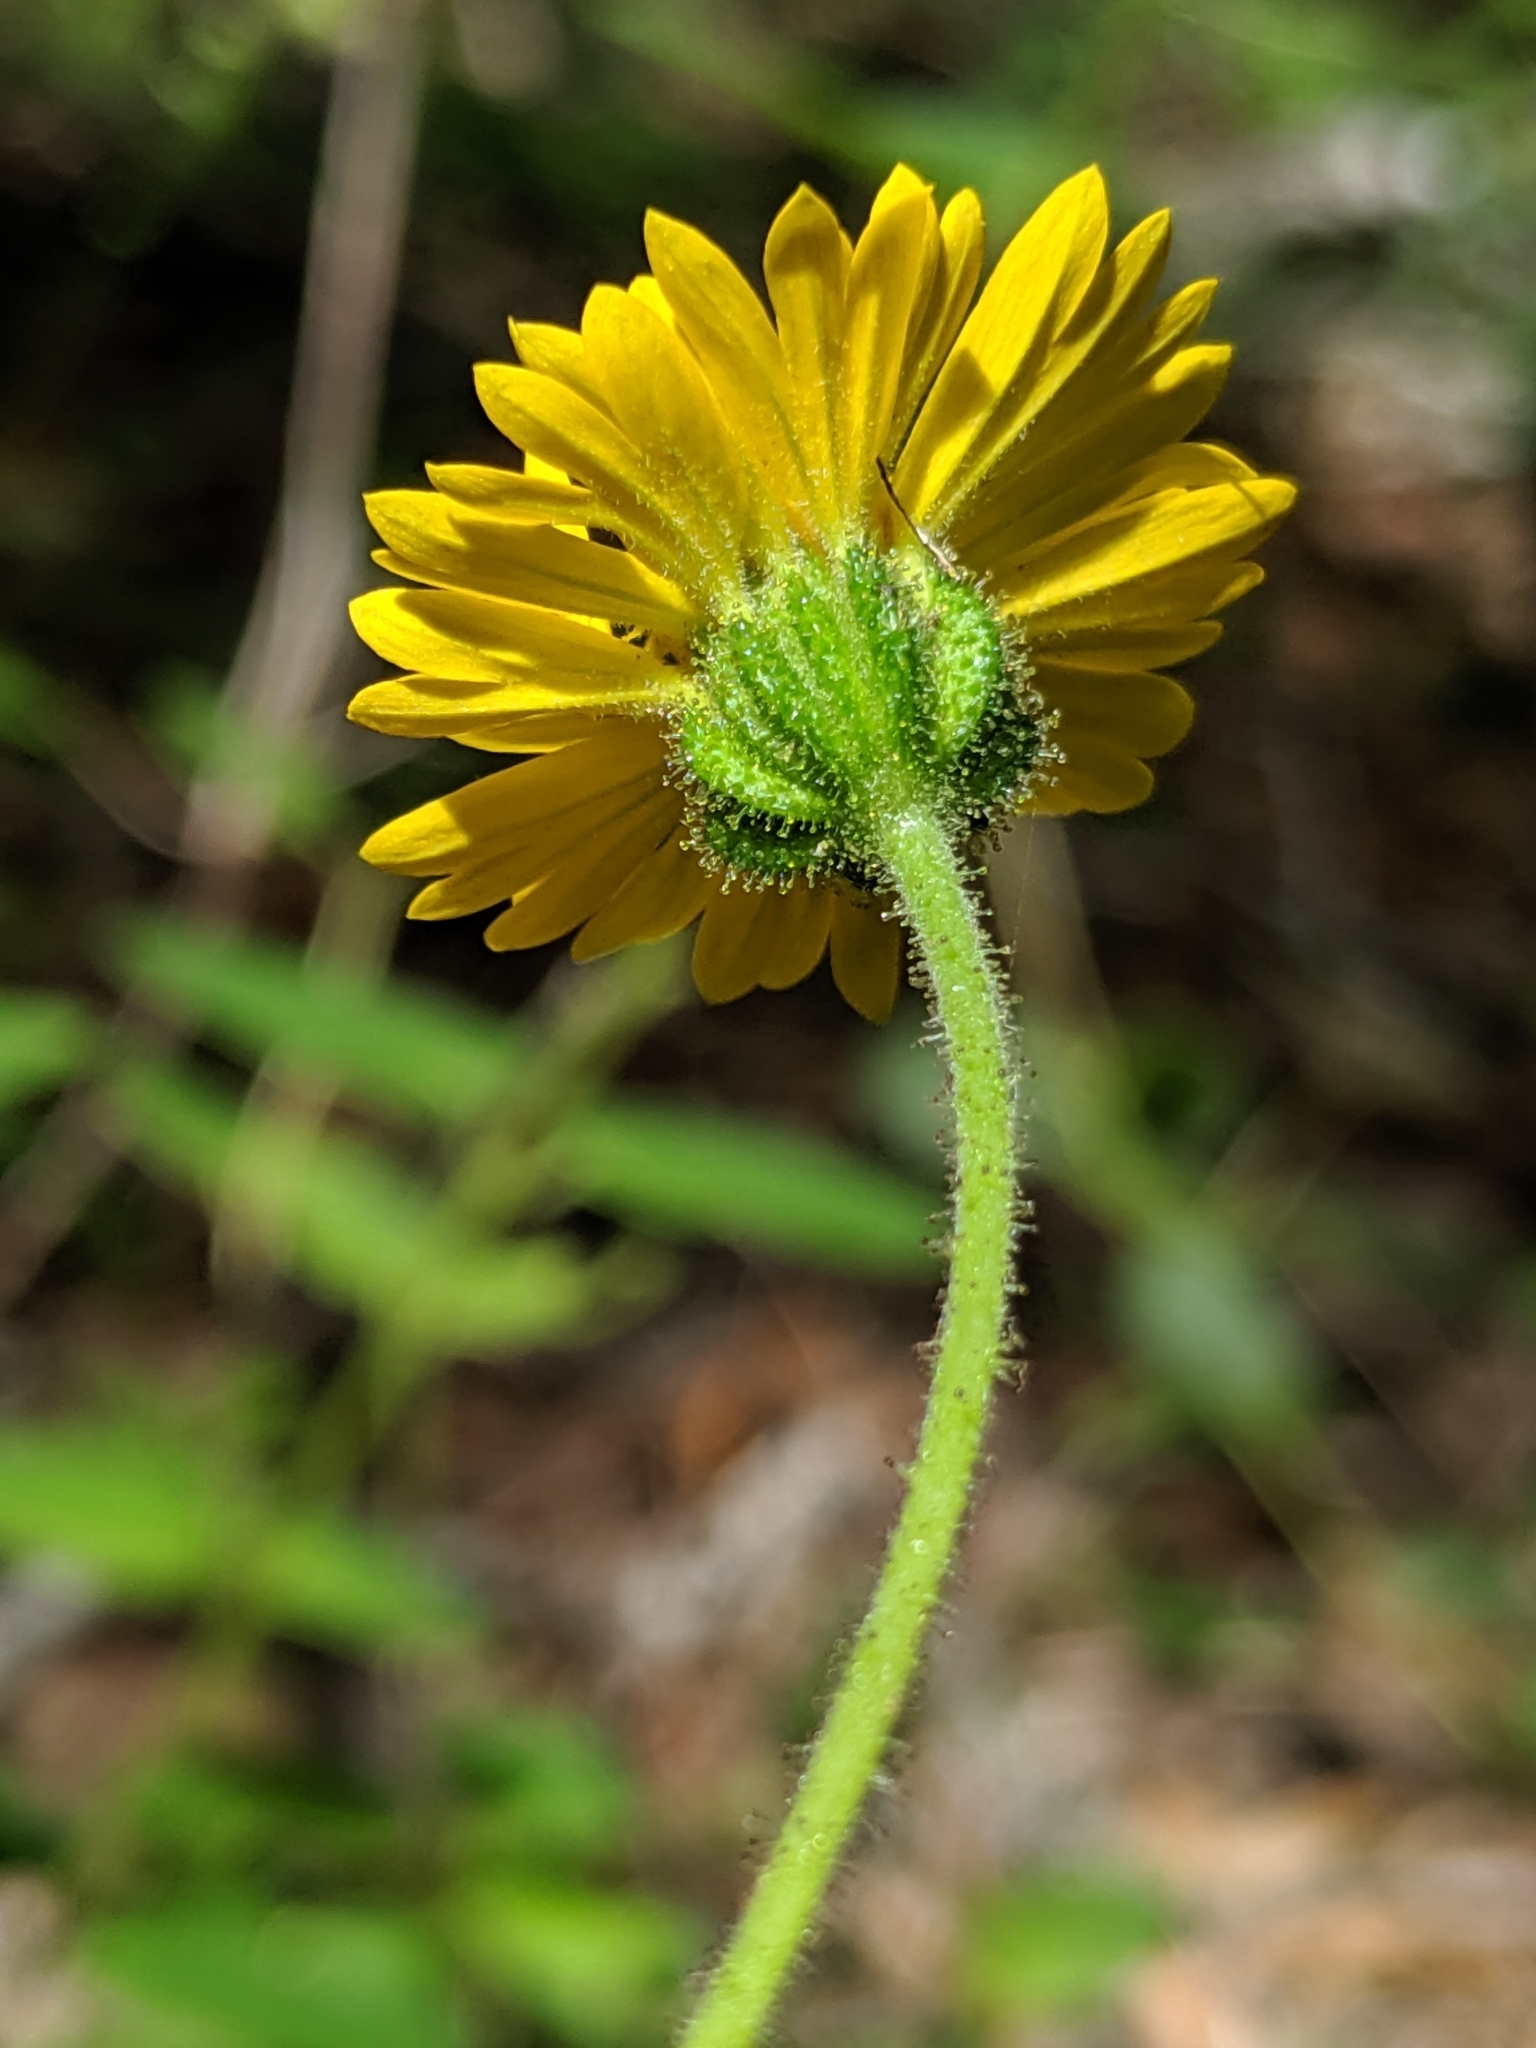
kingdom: Plantae
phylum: Tracheophyta
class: Magnoliopsida
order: Asterales
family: Asteraceae
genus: Anisocarpus
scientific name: Anisocarpus madioides
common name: Woodland madia
